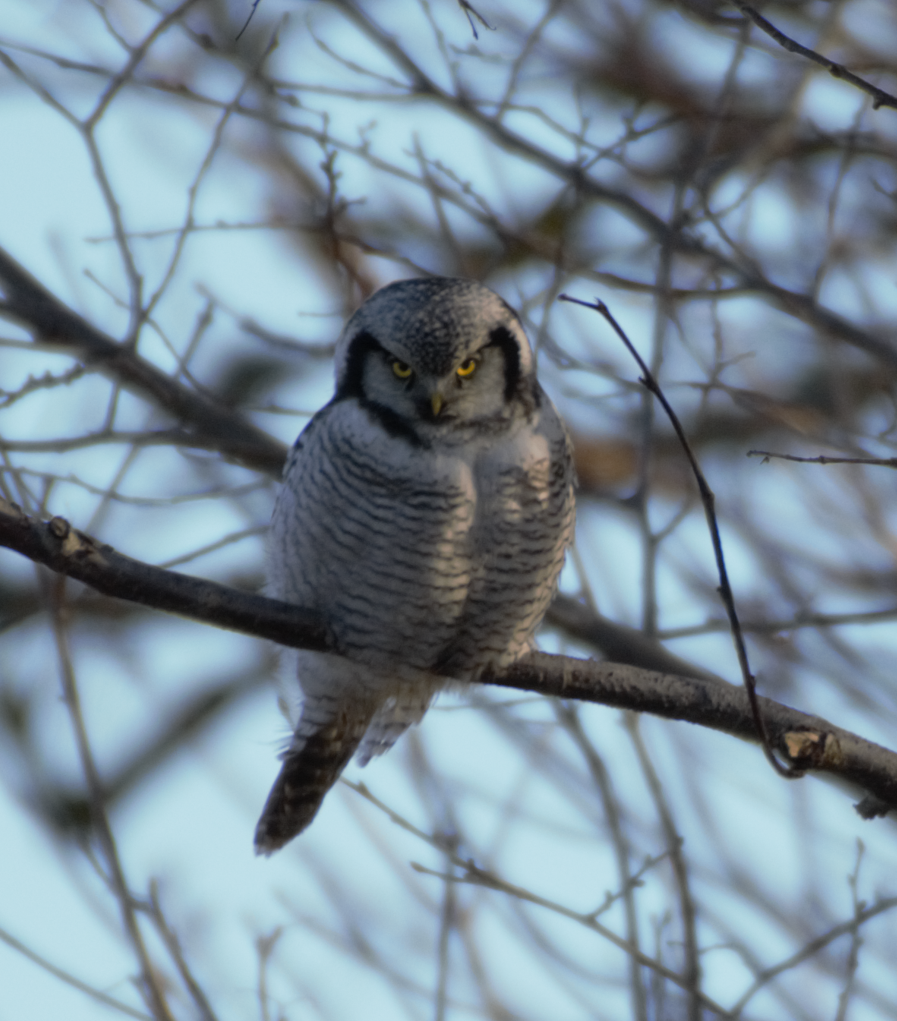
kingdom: Animalia
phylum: Chordata
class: Aves
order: Strigiformes
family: Strigidae
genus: Surnia
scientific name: Surnia ulula
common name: Northern hawk-owl
